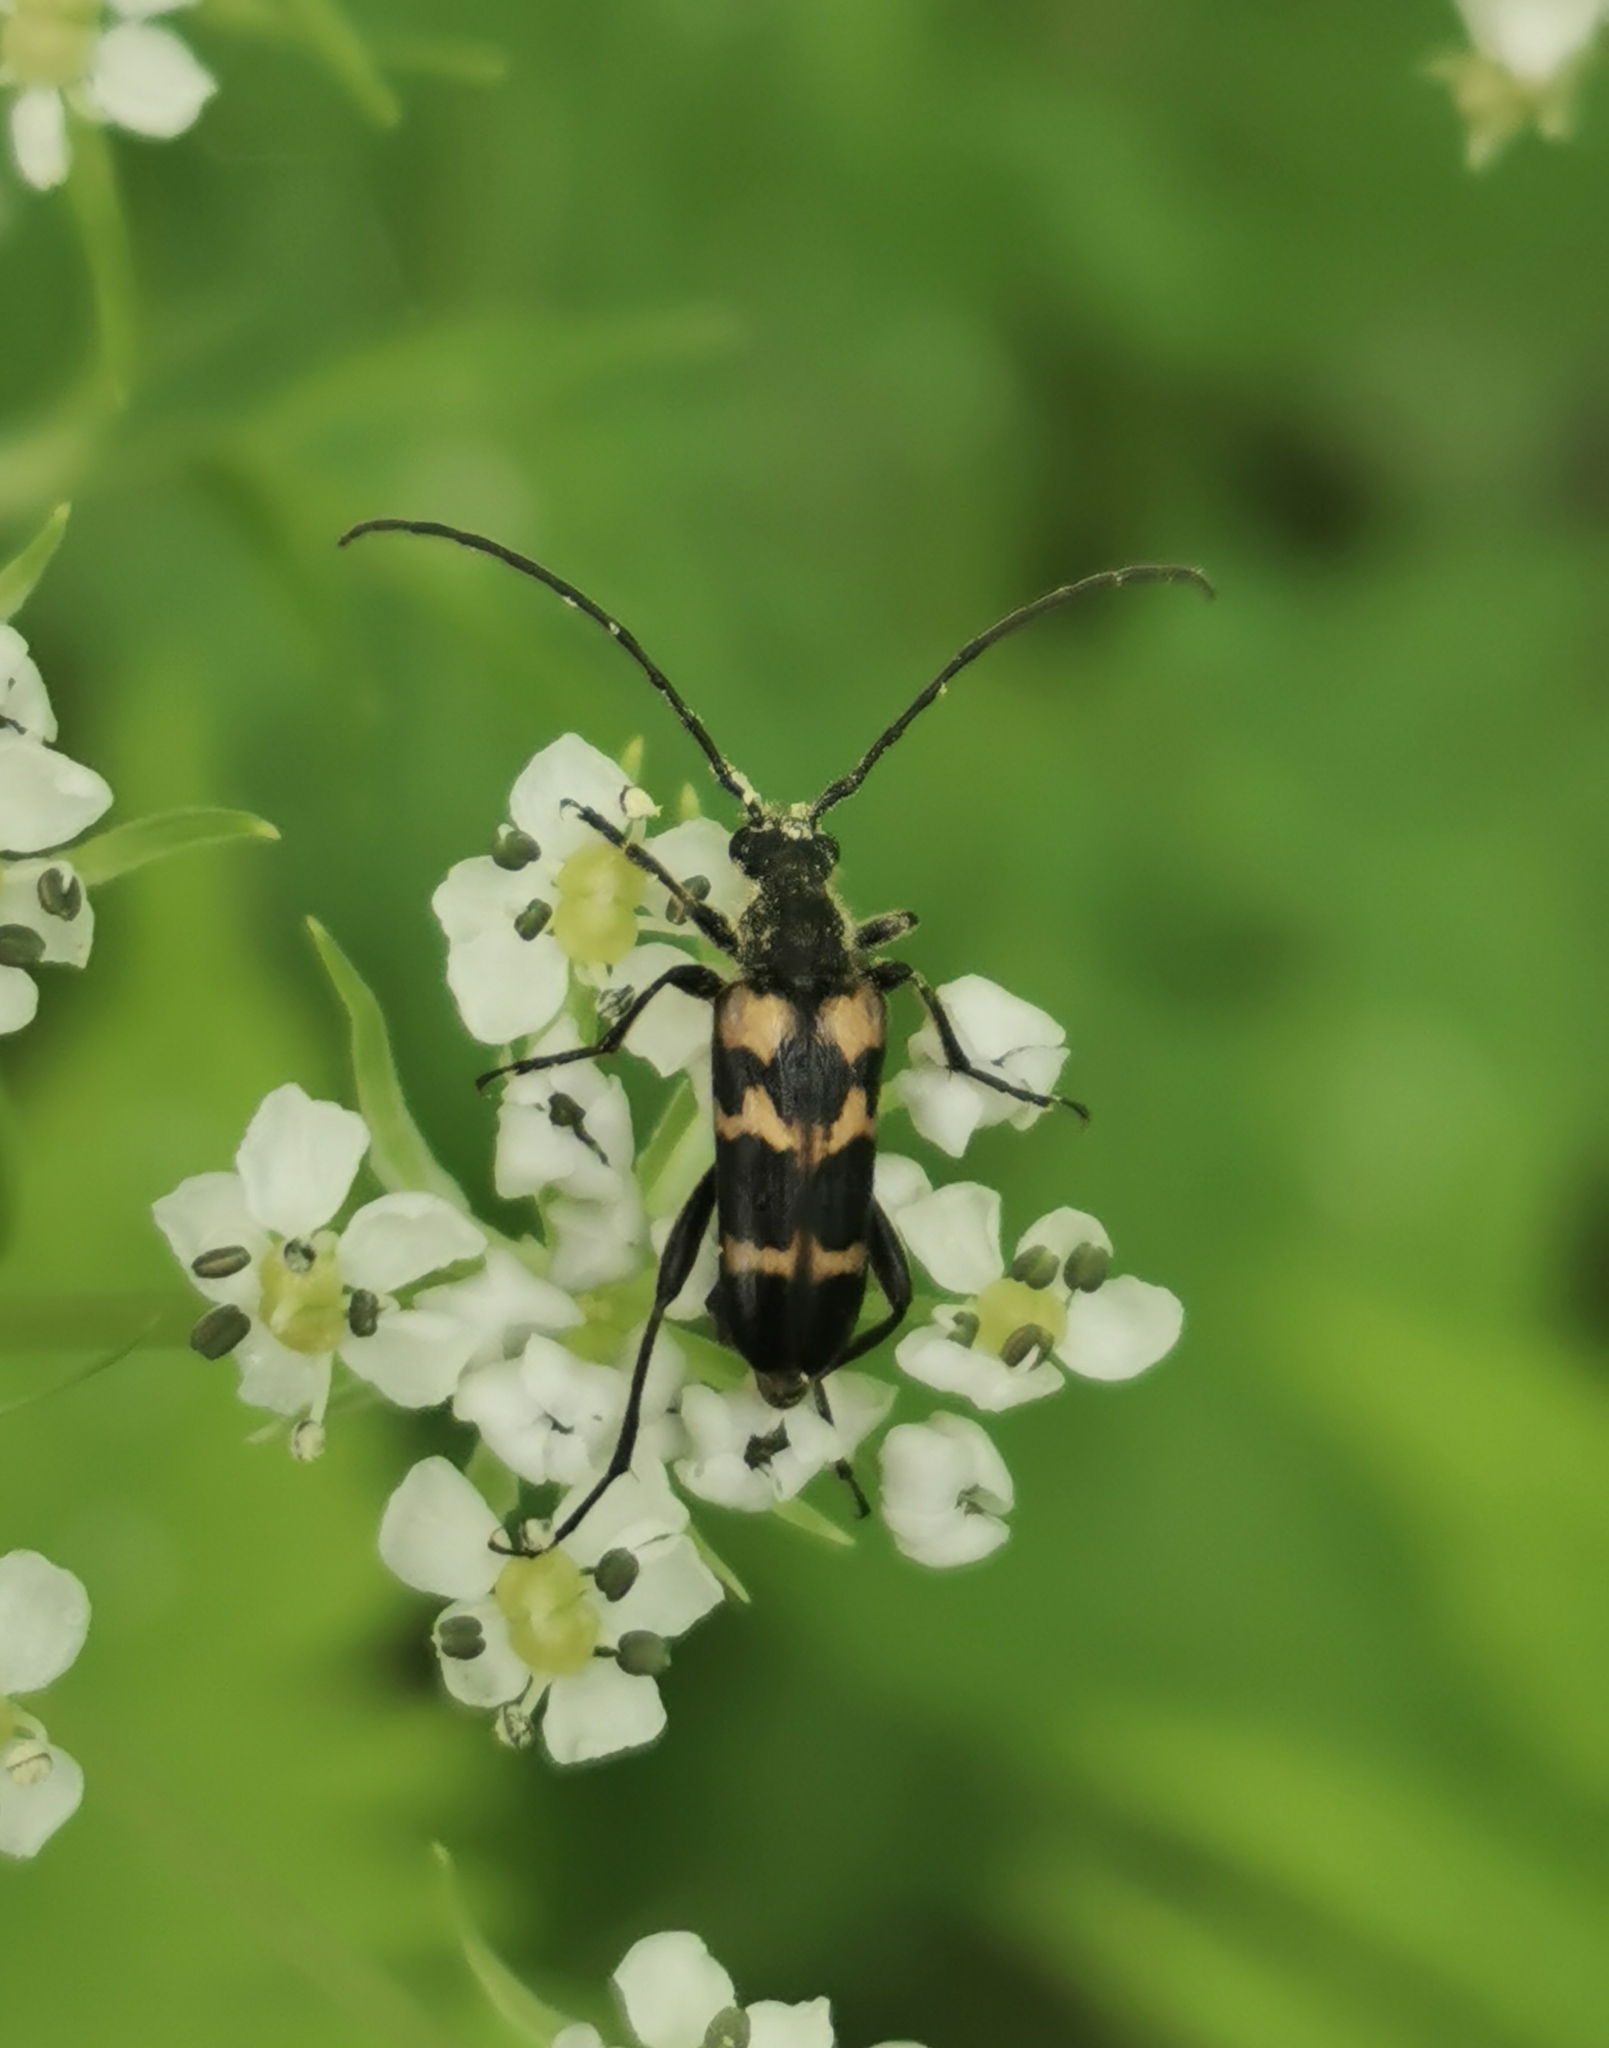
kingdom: Animalia
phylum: Arthropoda
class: Insecta
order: Coleoptera
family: Cerambycidae
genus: Judolia
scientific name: Judolia dentatofasciata
